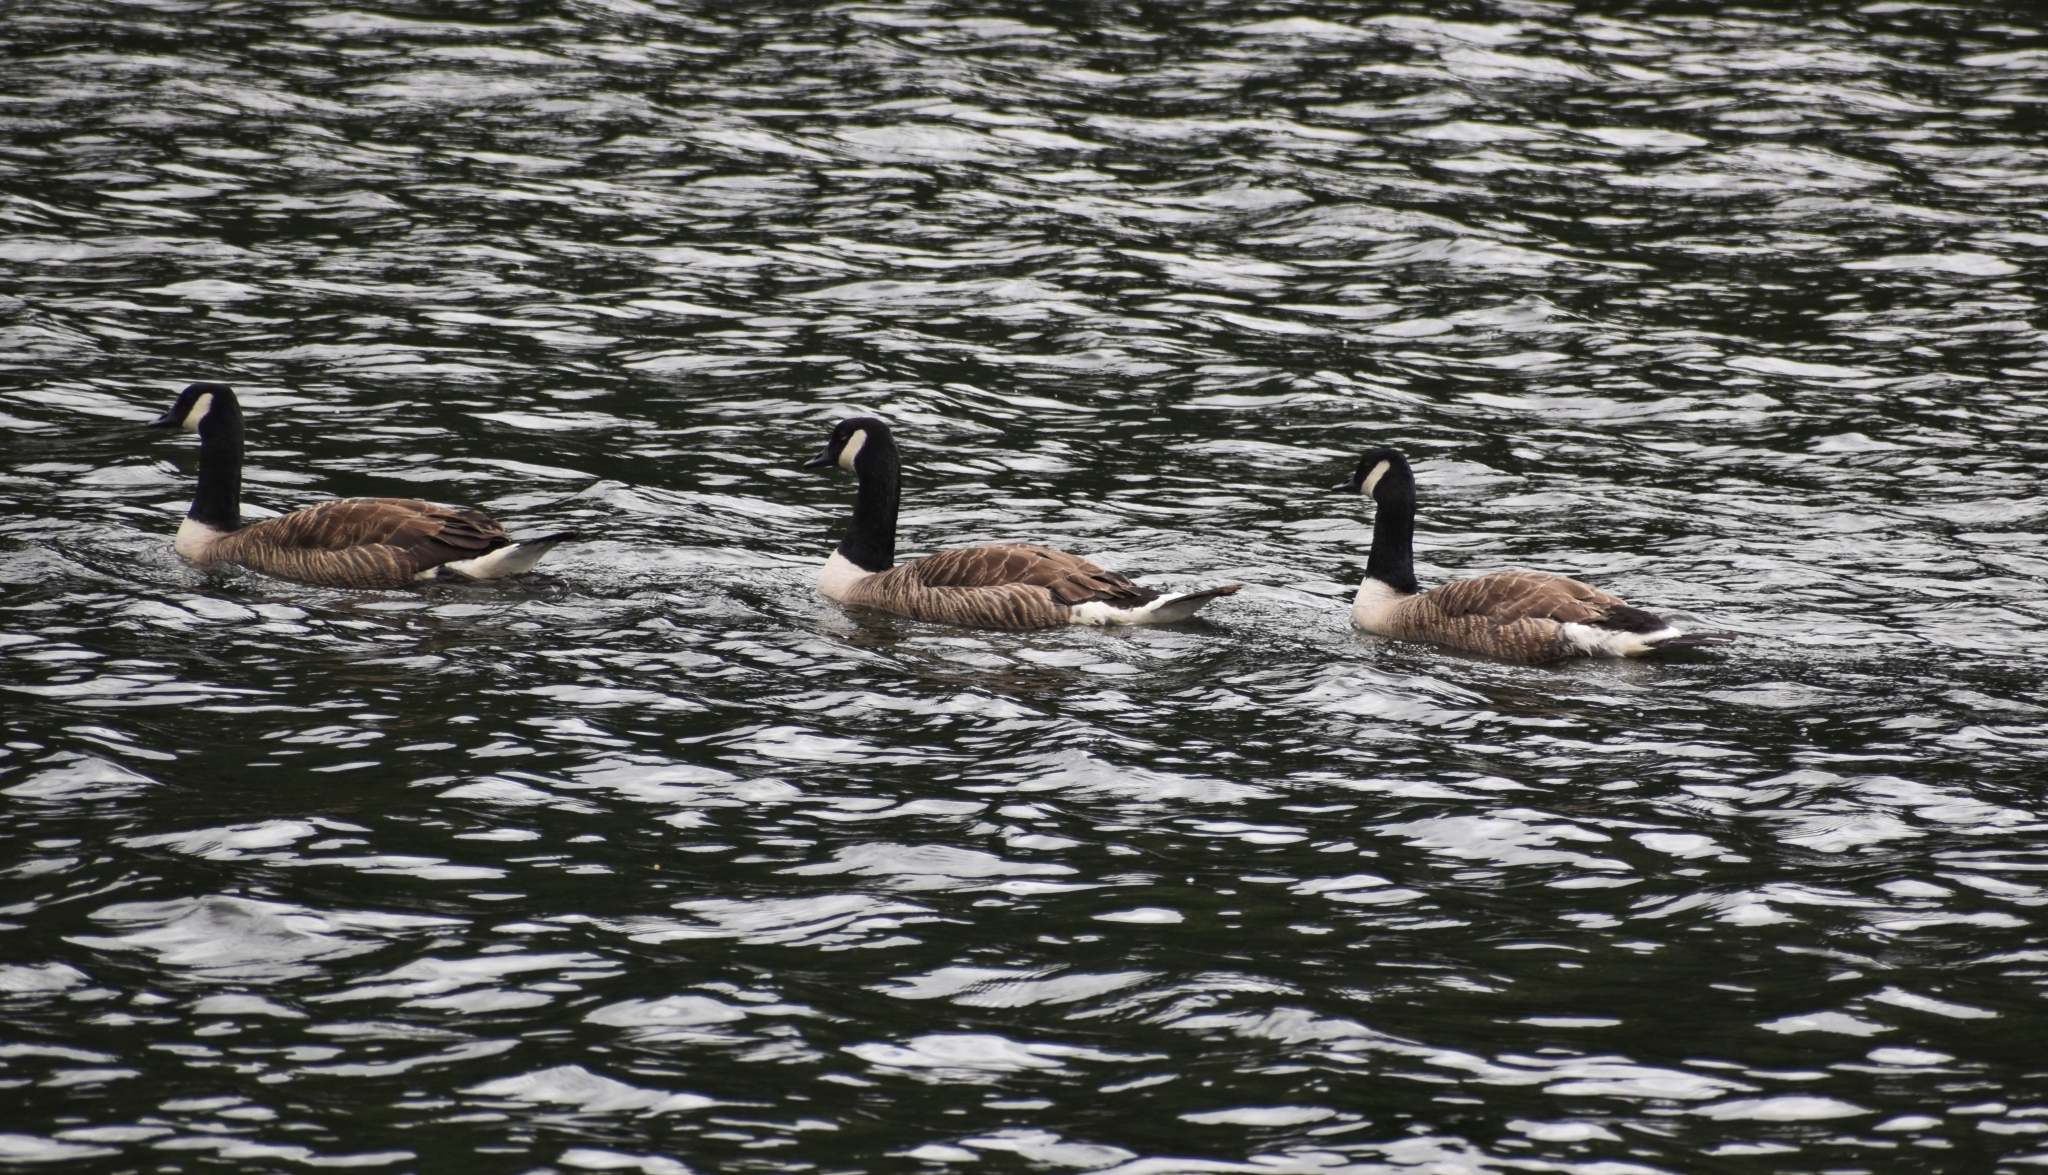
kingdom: Animalia
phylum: Chordata
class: Aves
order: Anseriformes
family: Anatidae
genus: Branta
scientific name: Branta canadensis
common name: Canada goose
